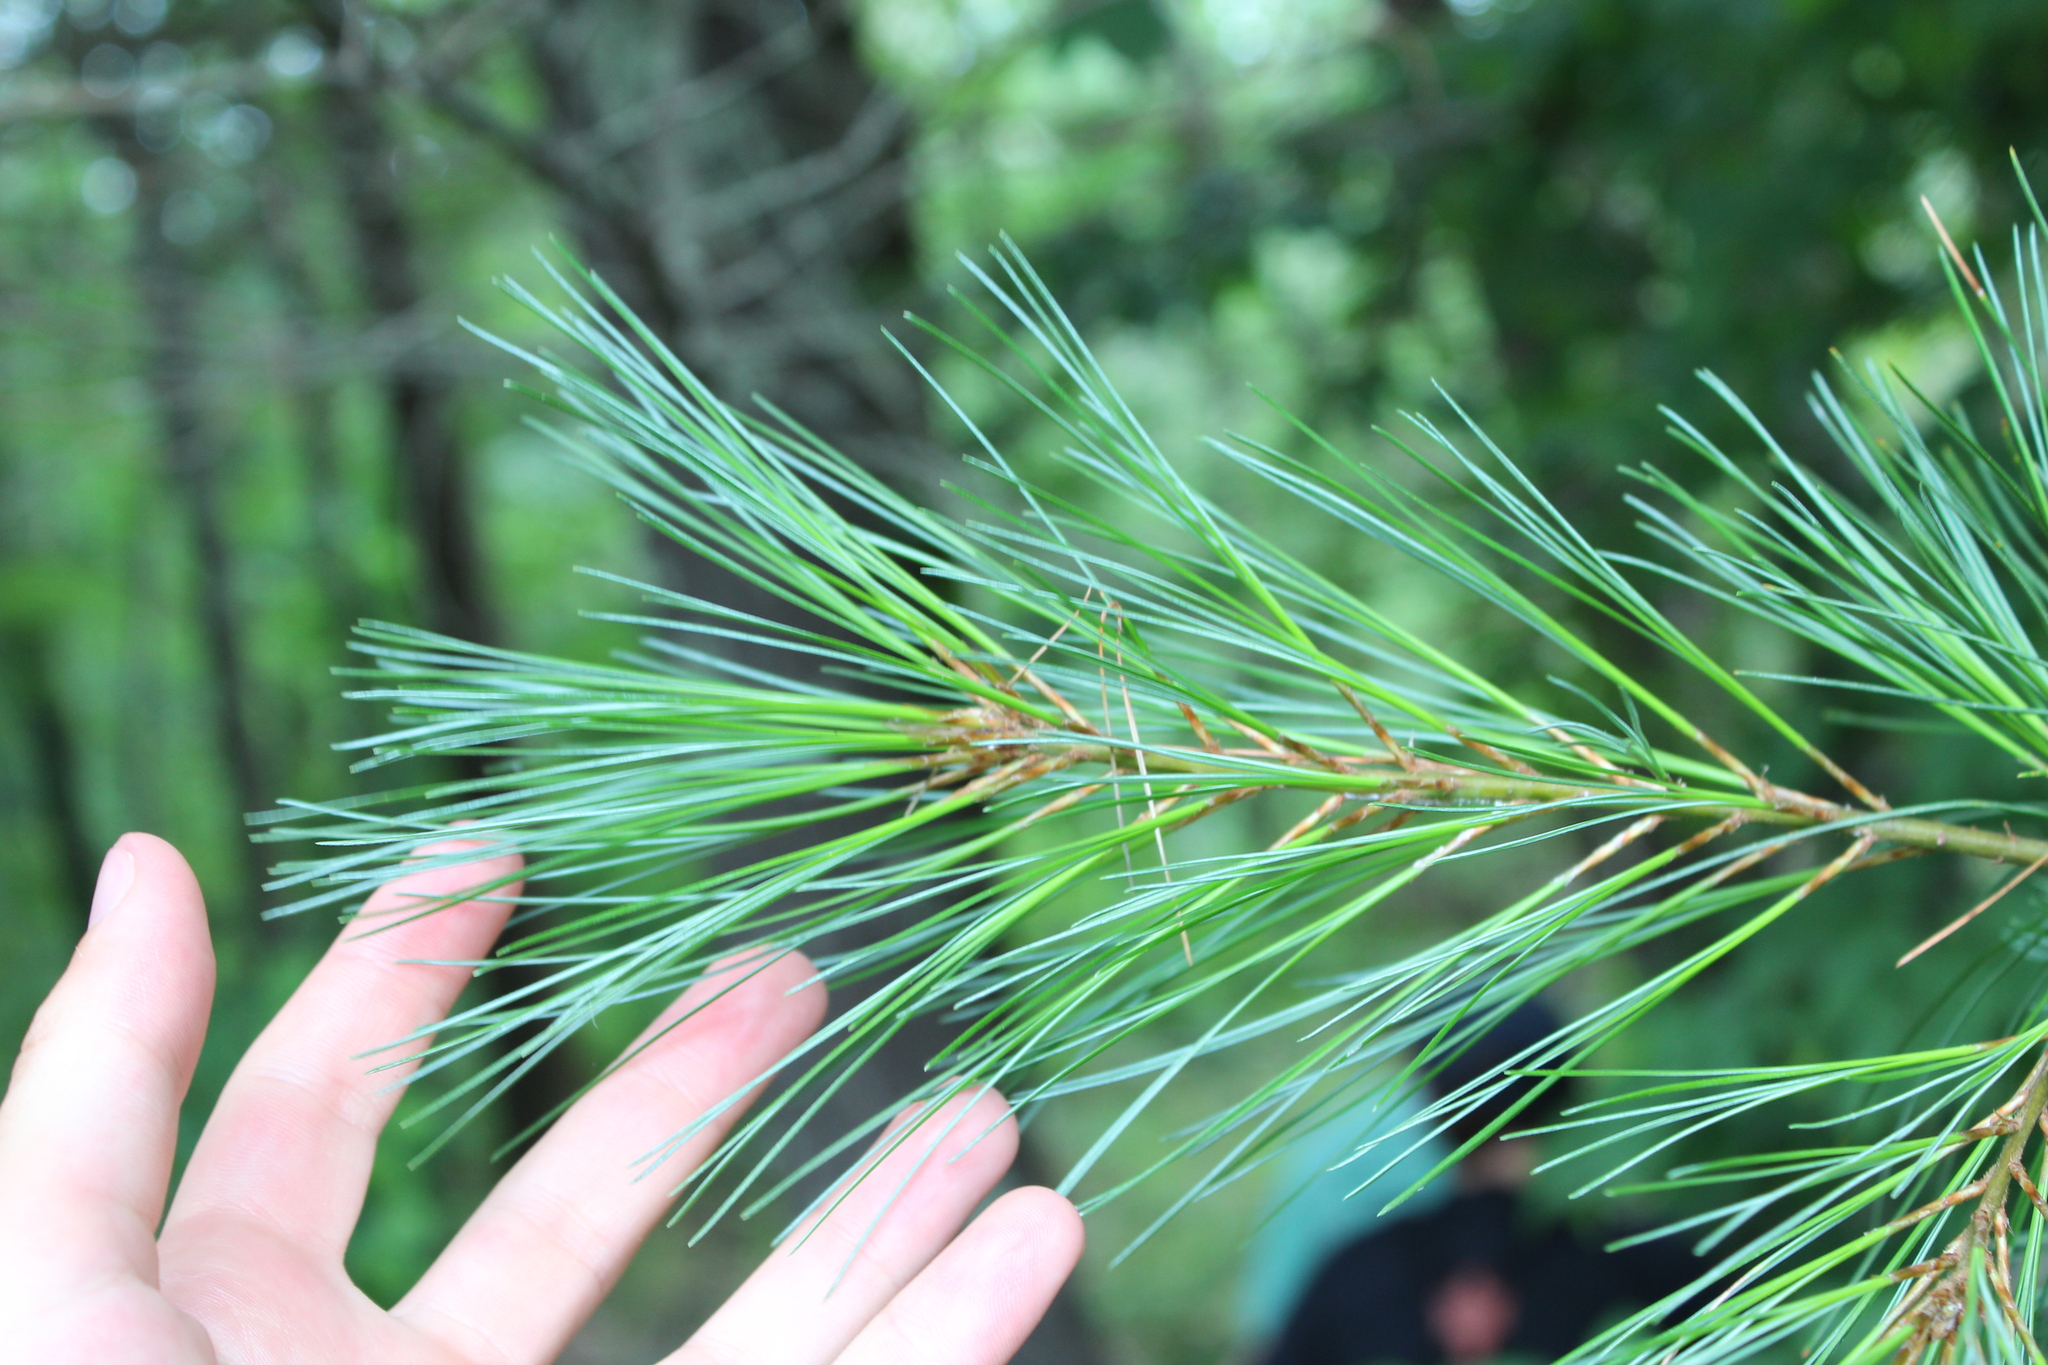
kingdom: Plantae
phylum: Tracheophyta
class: Pinopsida
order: Pinales
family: Pinaceae
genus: Pinus
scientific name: Pinus strobus
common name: Weymouth pine
